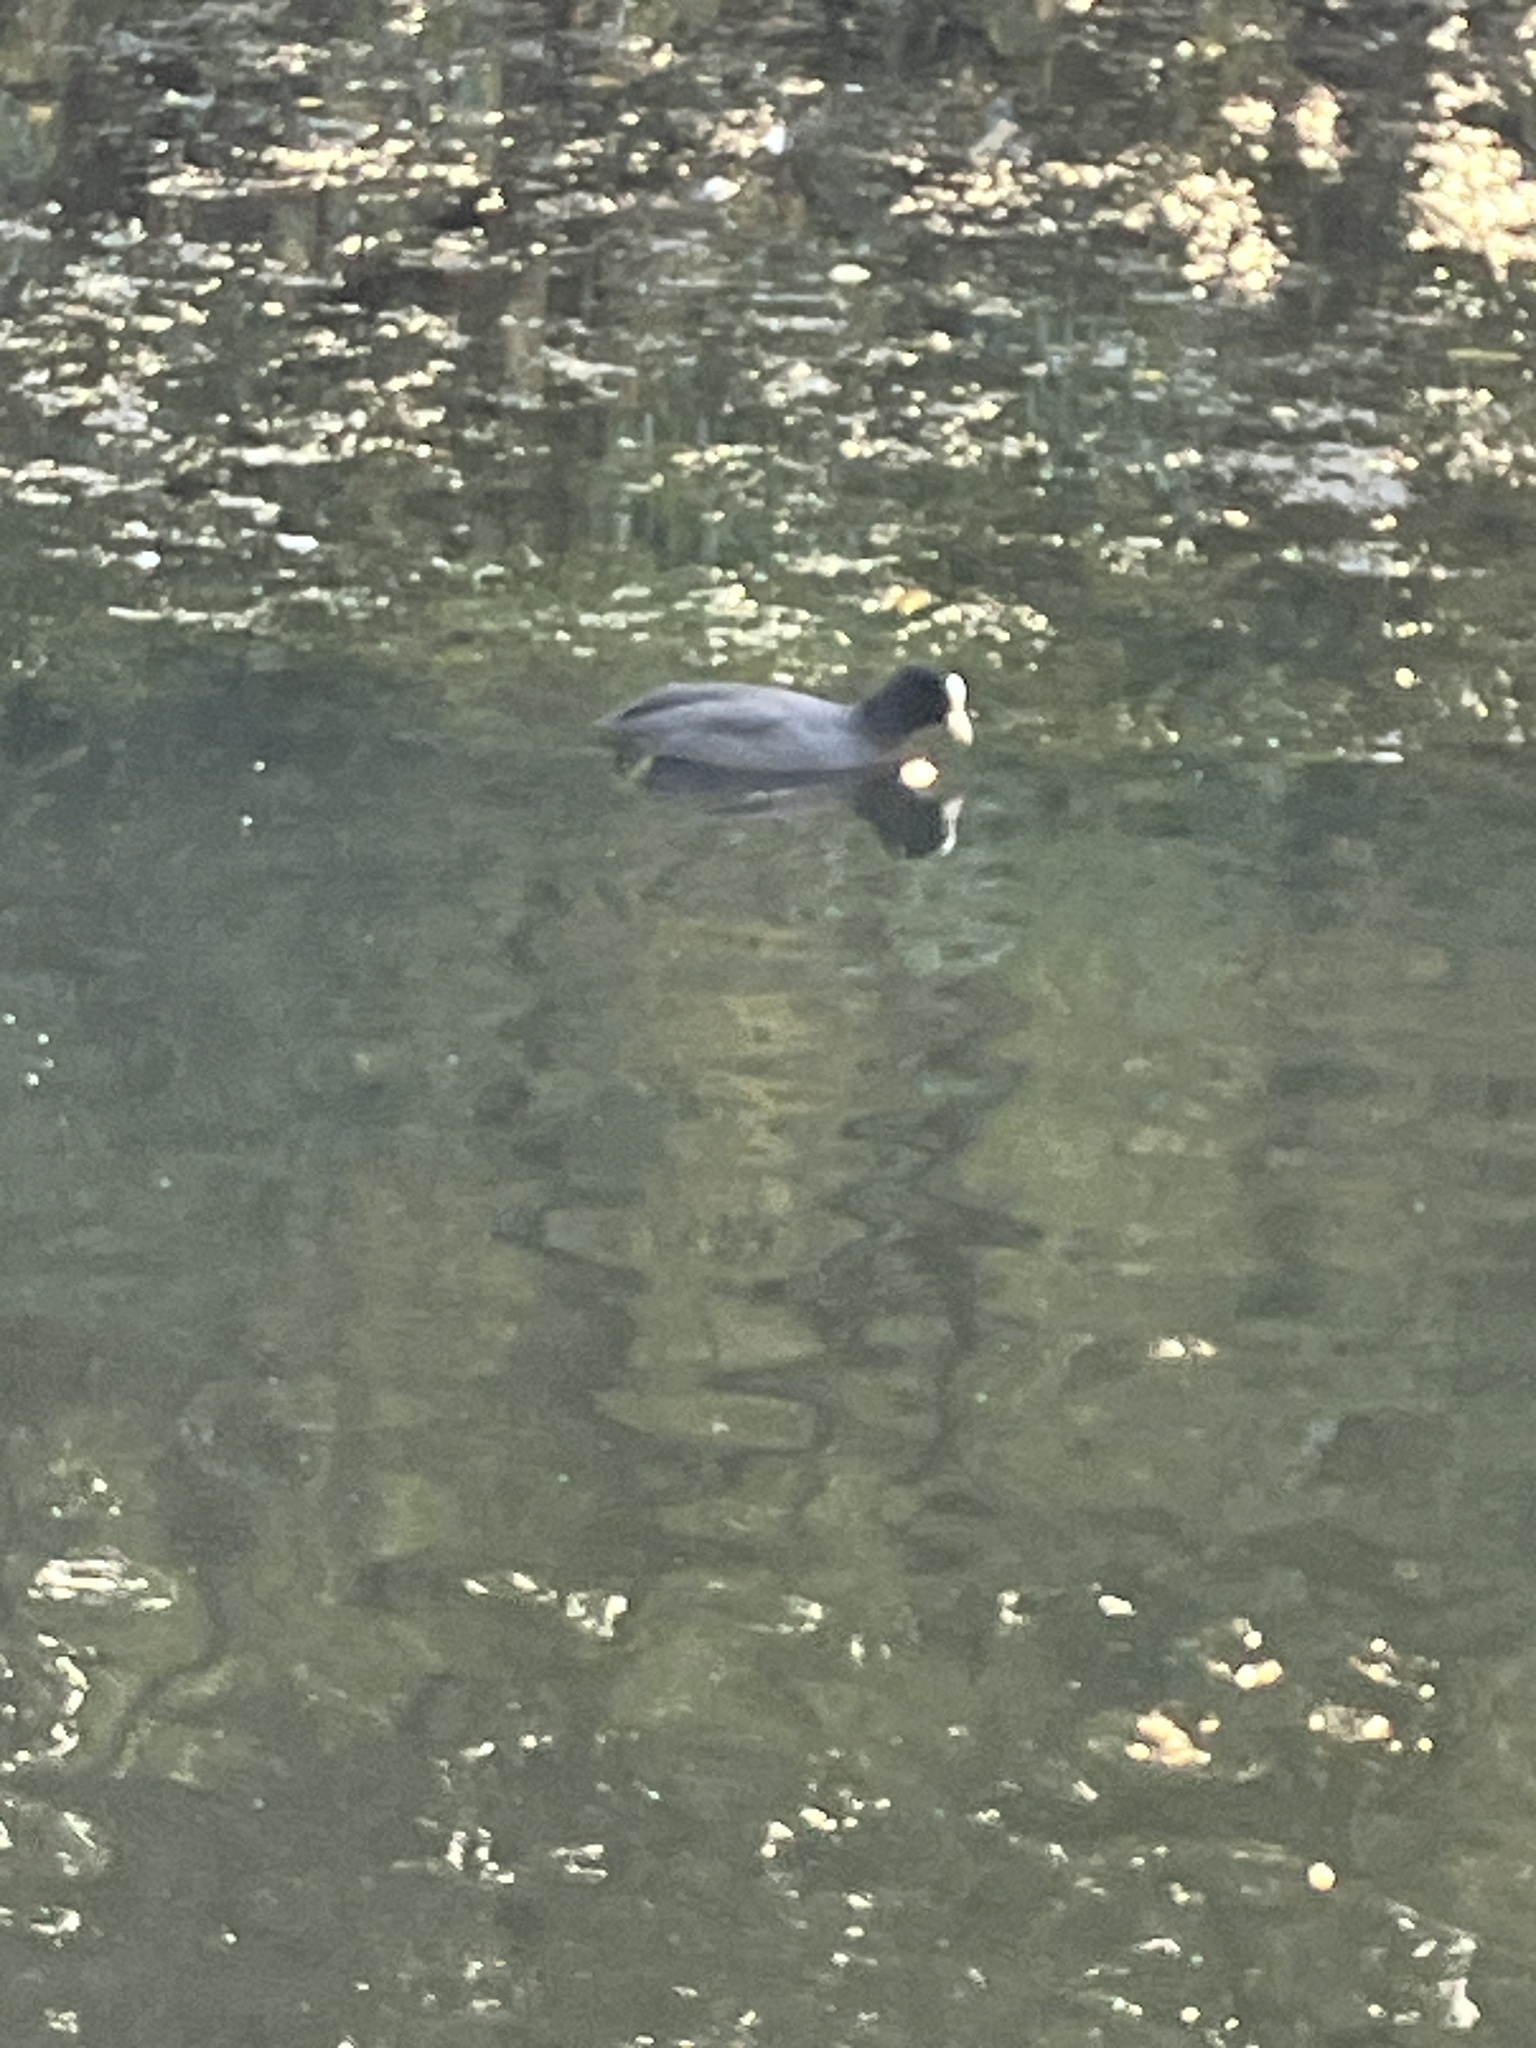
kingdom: Animalia
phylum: Chordata
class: Aves
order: Gruiformes
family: Rallidae
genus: Fulica
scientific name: Fulica atra
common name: Eurasian coot
